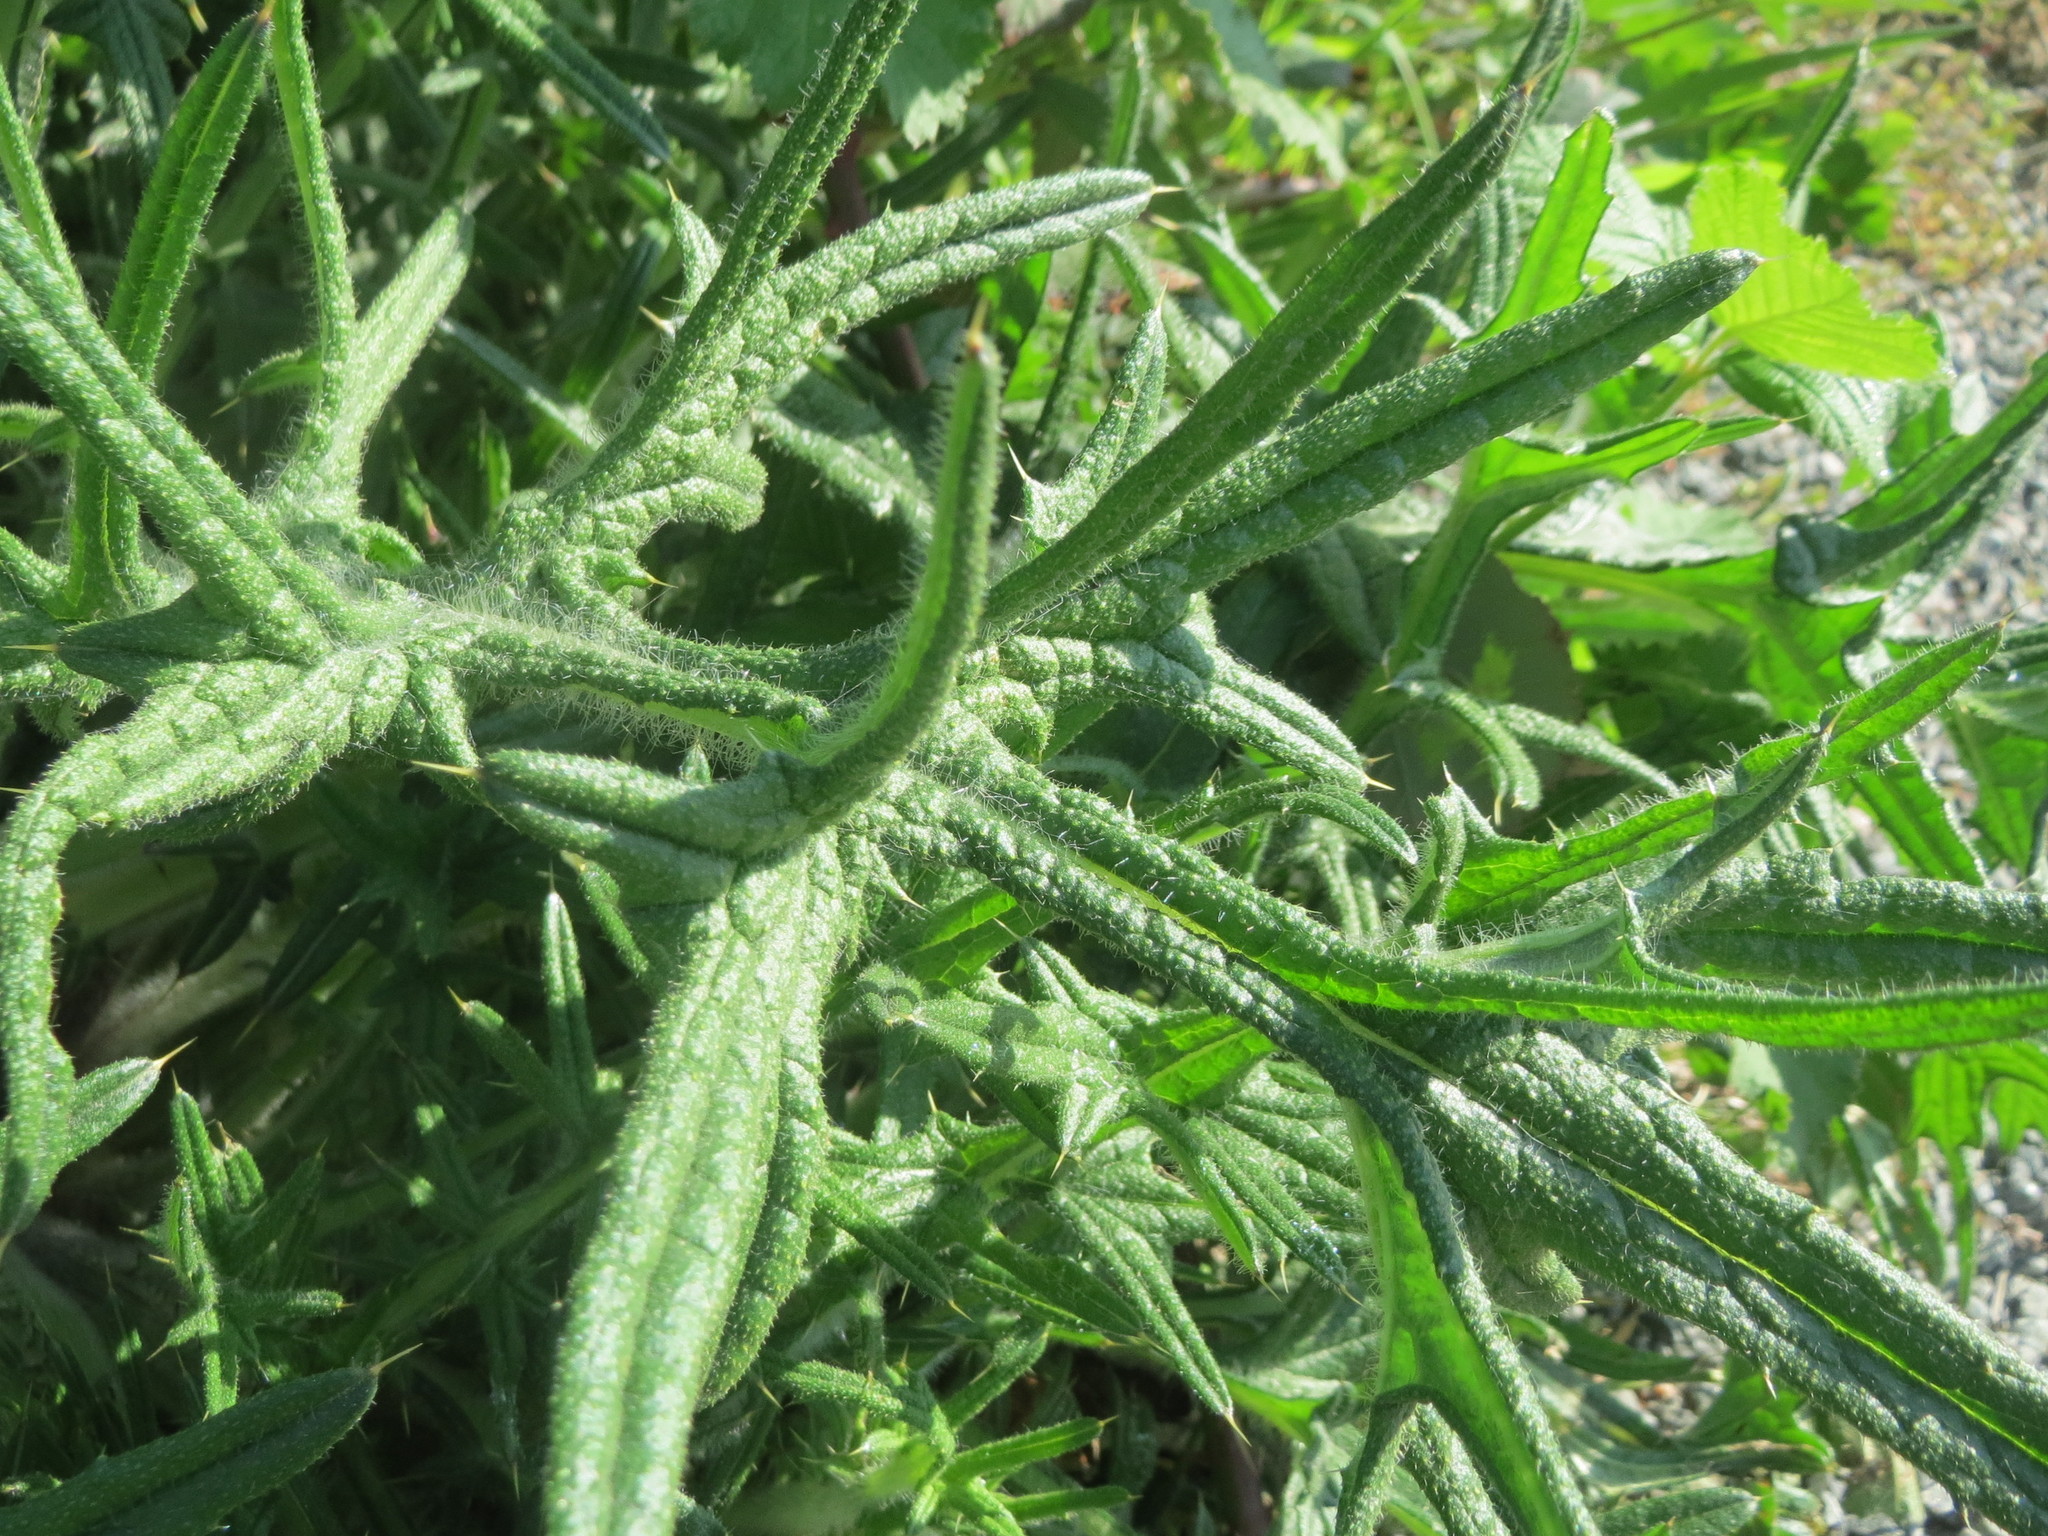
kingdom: Plantae
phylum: Tracheophyta
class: Magnoliopsida
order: Asterales
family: Asteraceae
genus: Cirsium
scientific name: Cirsium vulgare
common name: Bull thistle
